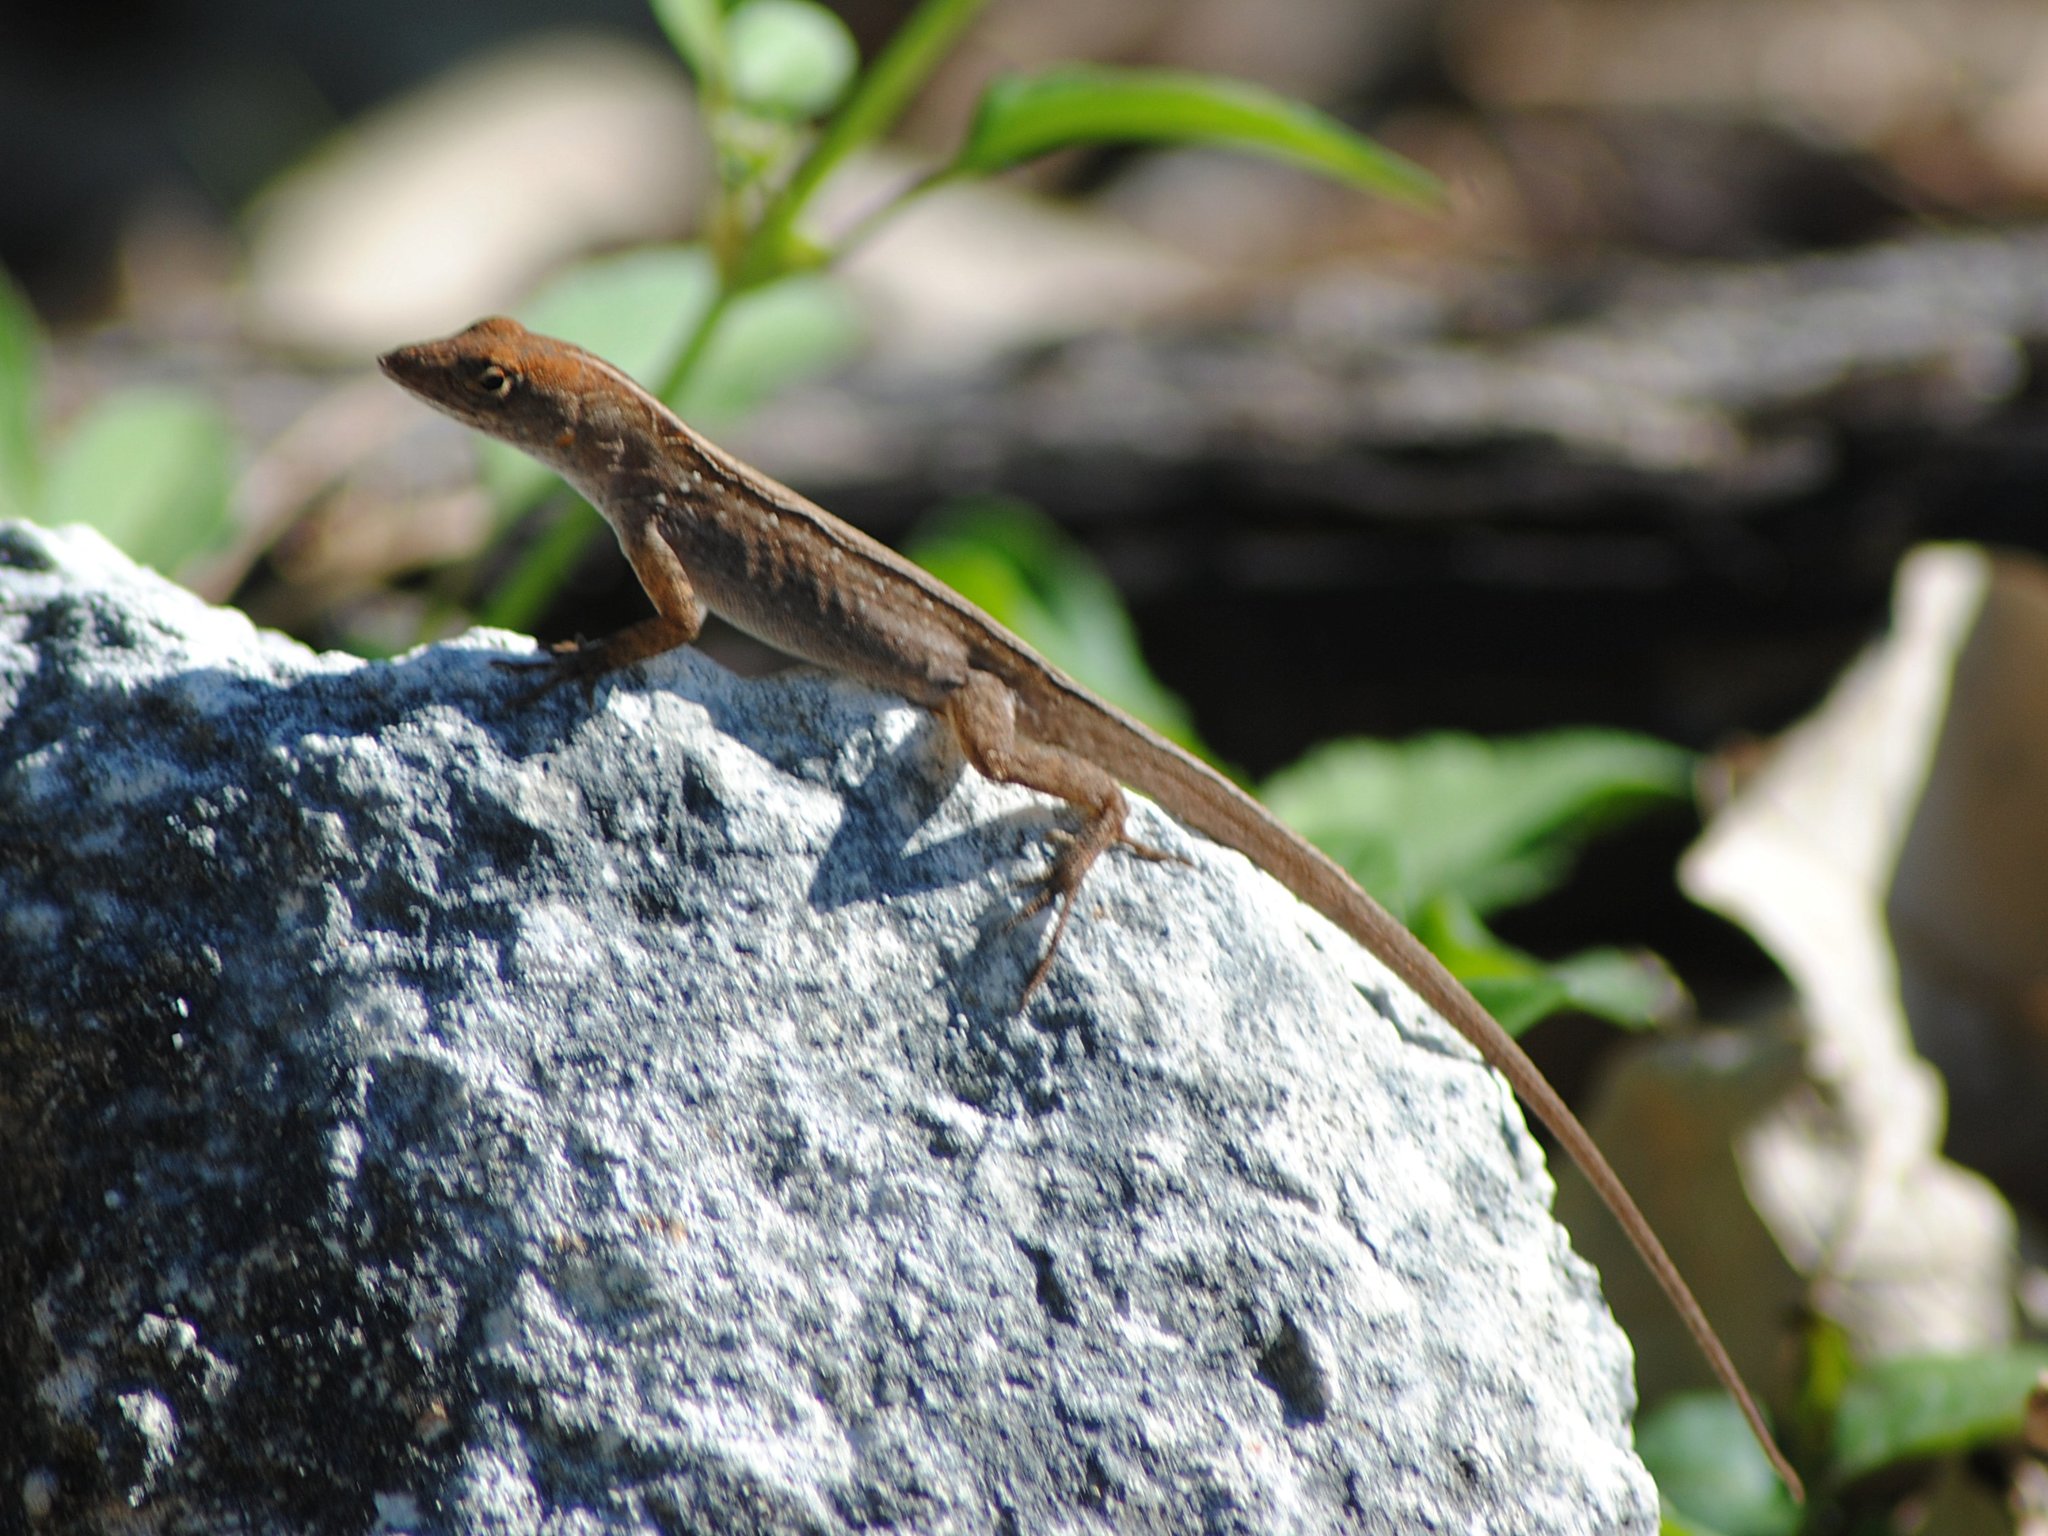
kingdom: Animalia
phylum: Chordata
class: Squamata
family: Dactyloidae
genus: Anolis
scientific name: Anolis sagrei
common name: Brown anole
